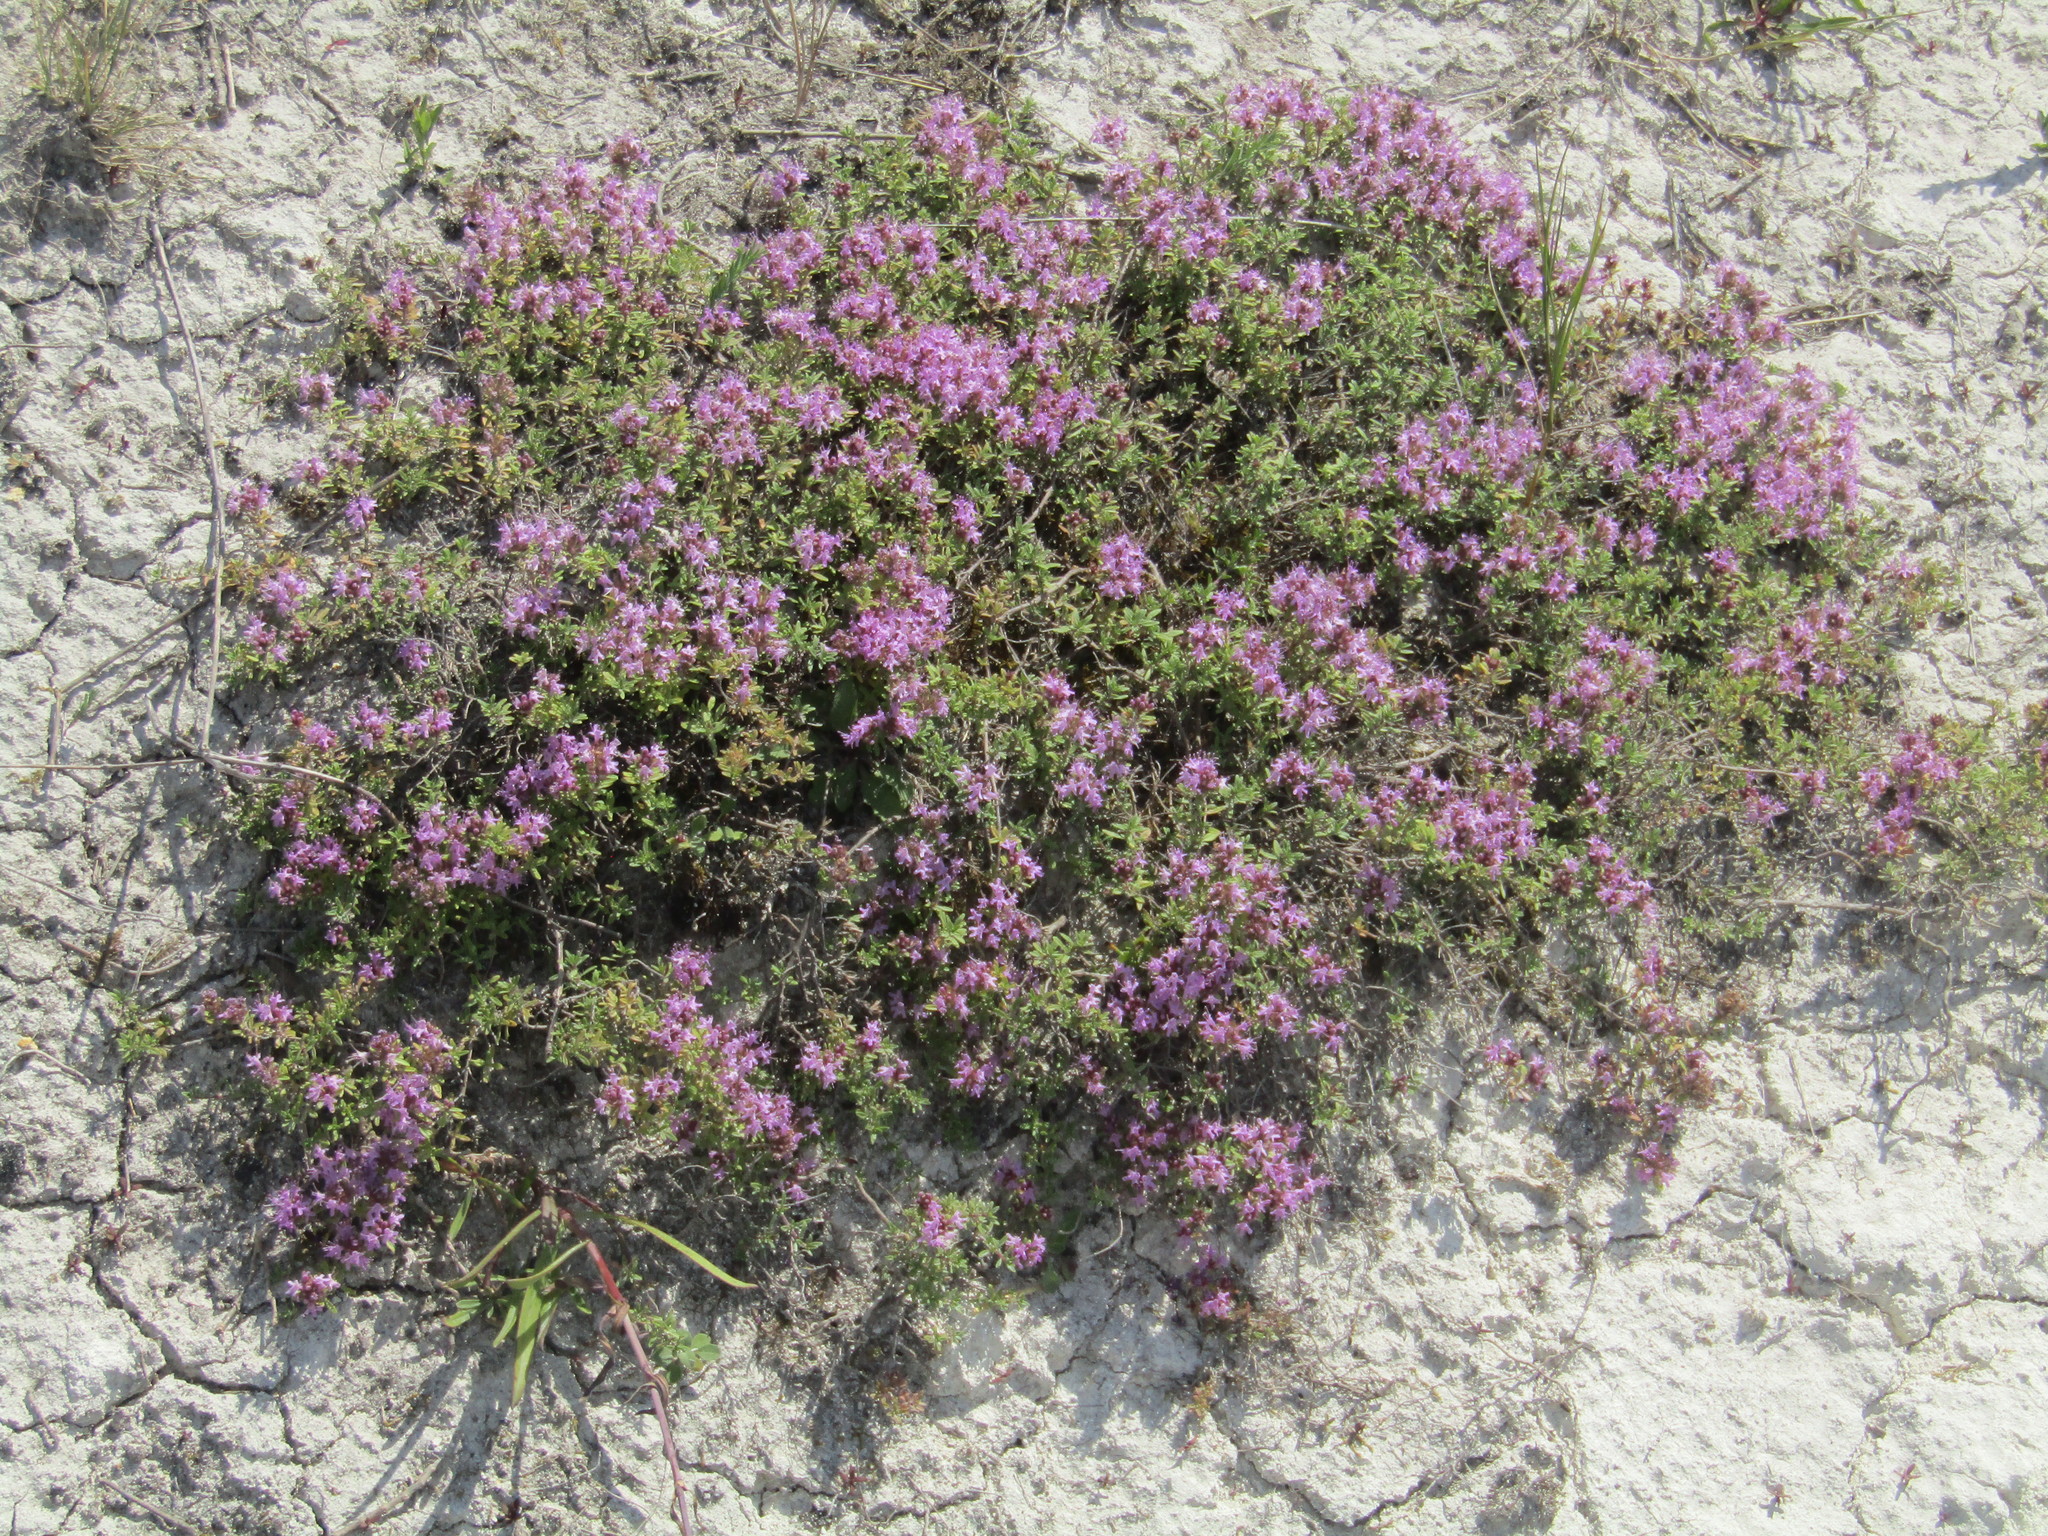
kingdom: Plantae
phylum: Tracheophyta
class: Magnoliopsida
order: Lamiales
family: Lamiaceae
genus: Thymus
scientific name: Thymus calcareus
